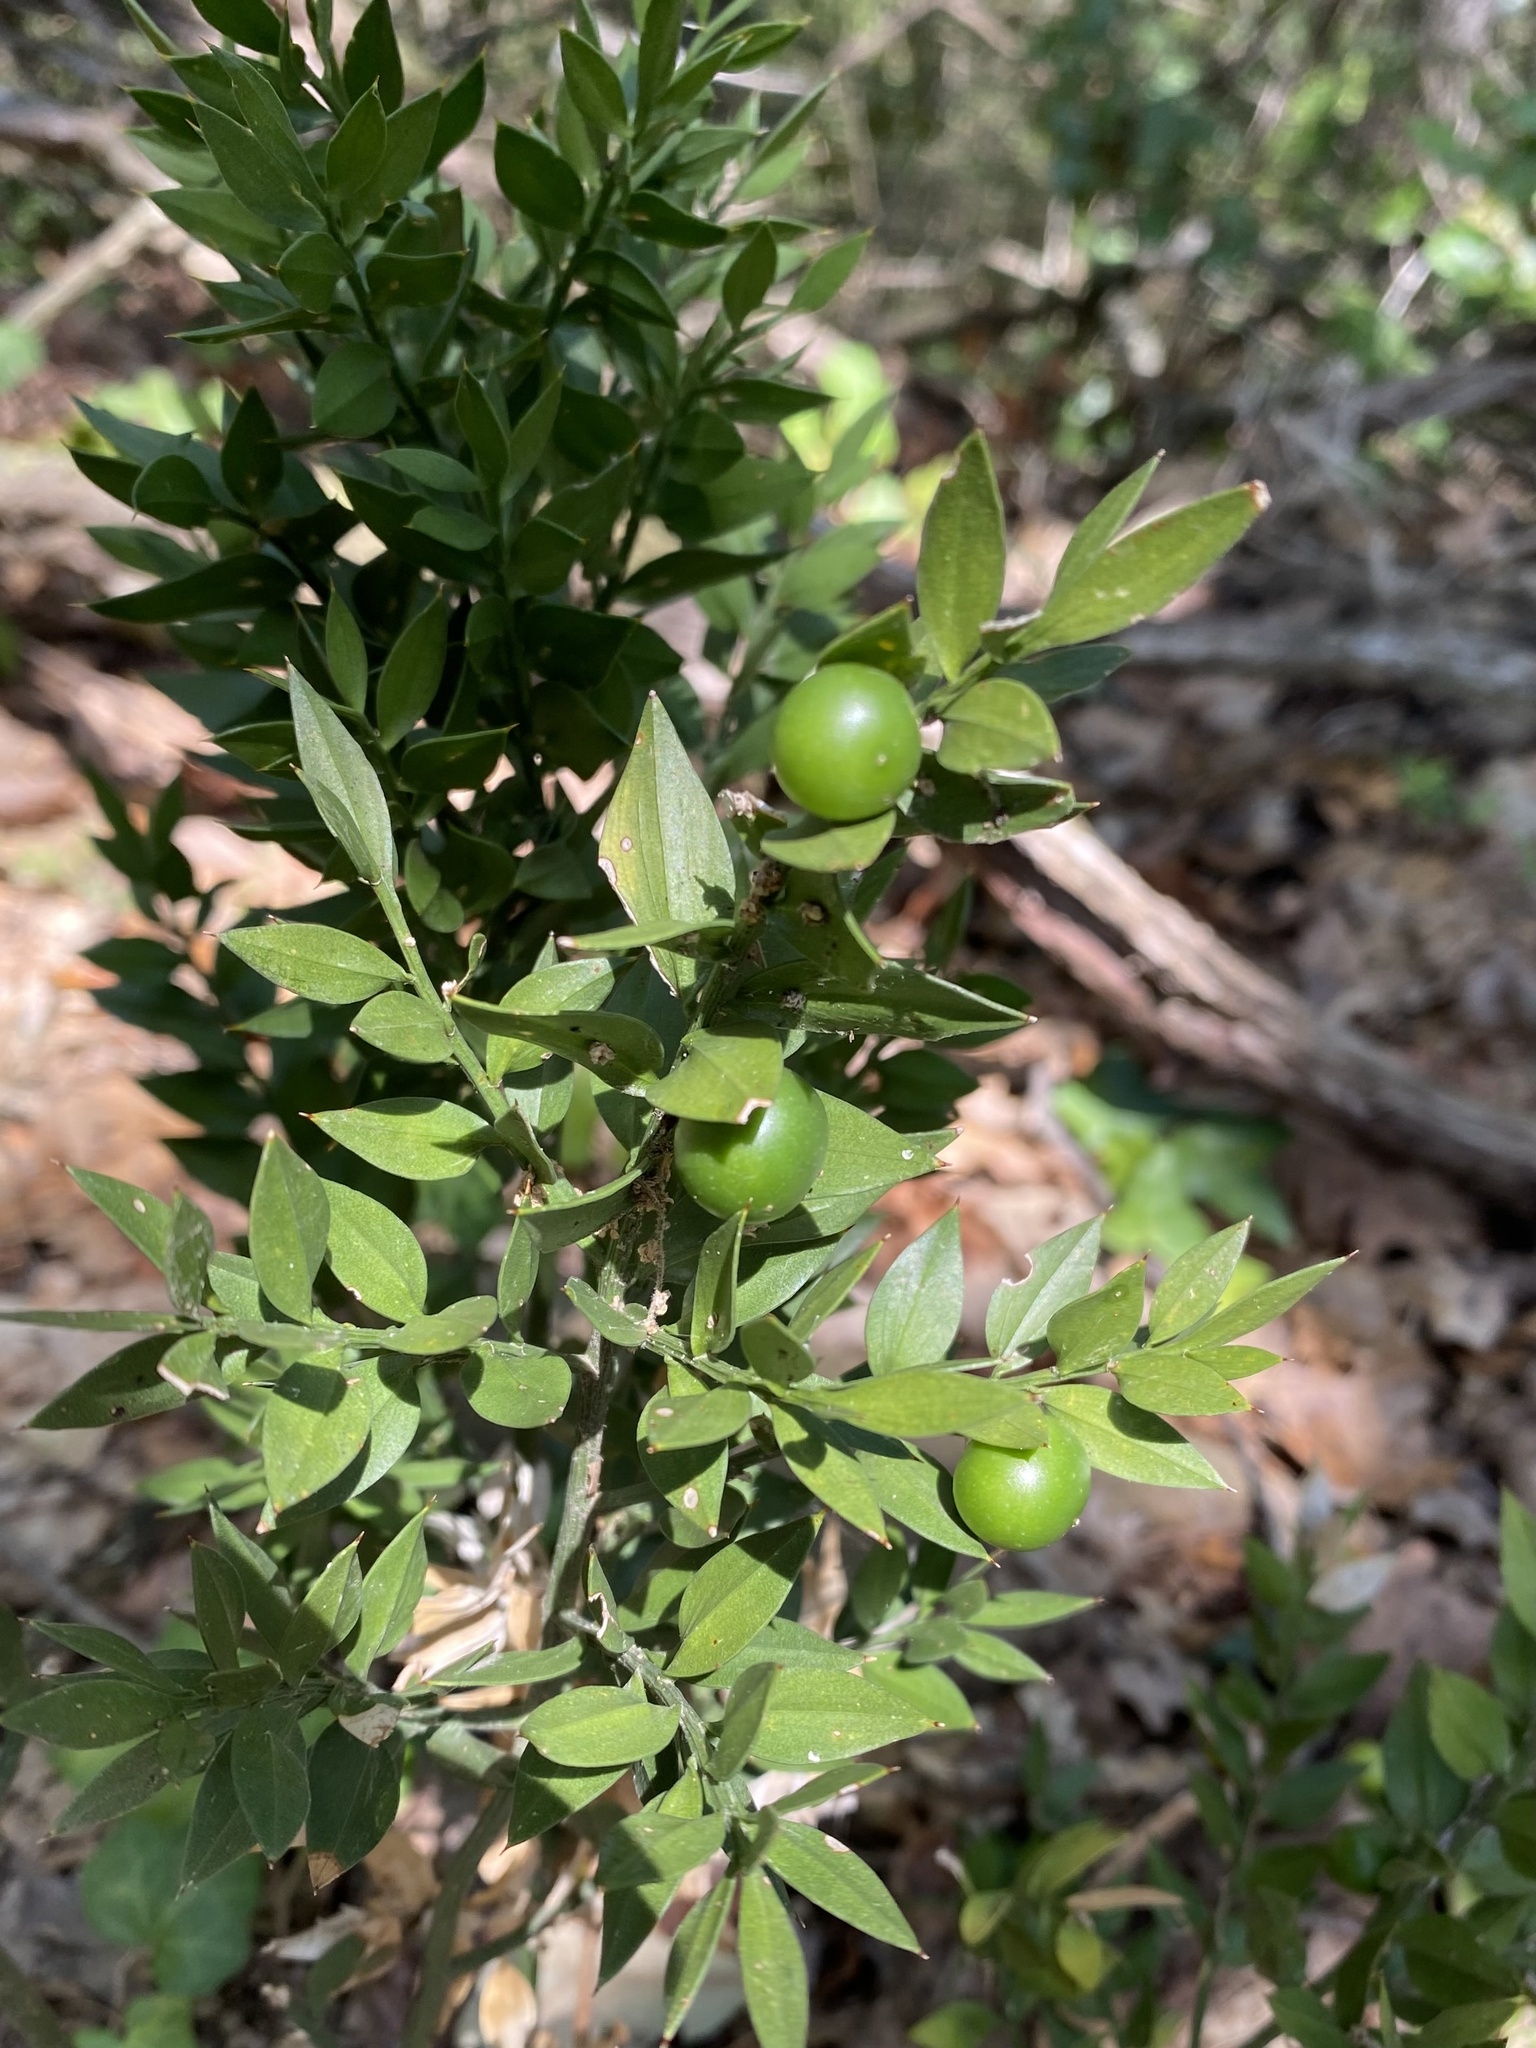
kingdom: Plantae
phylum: Tracheophyta
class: Liliopsida
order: Asparagales
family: Asparagaceae
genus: Ruscus
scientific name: Ruscus aculeatus
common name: Butcher's-broom
